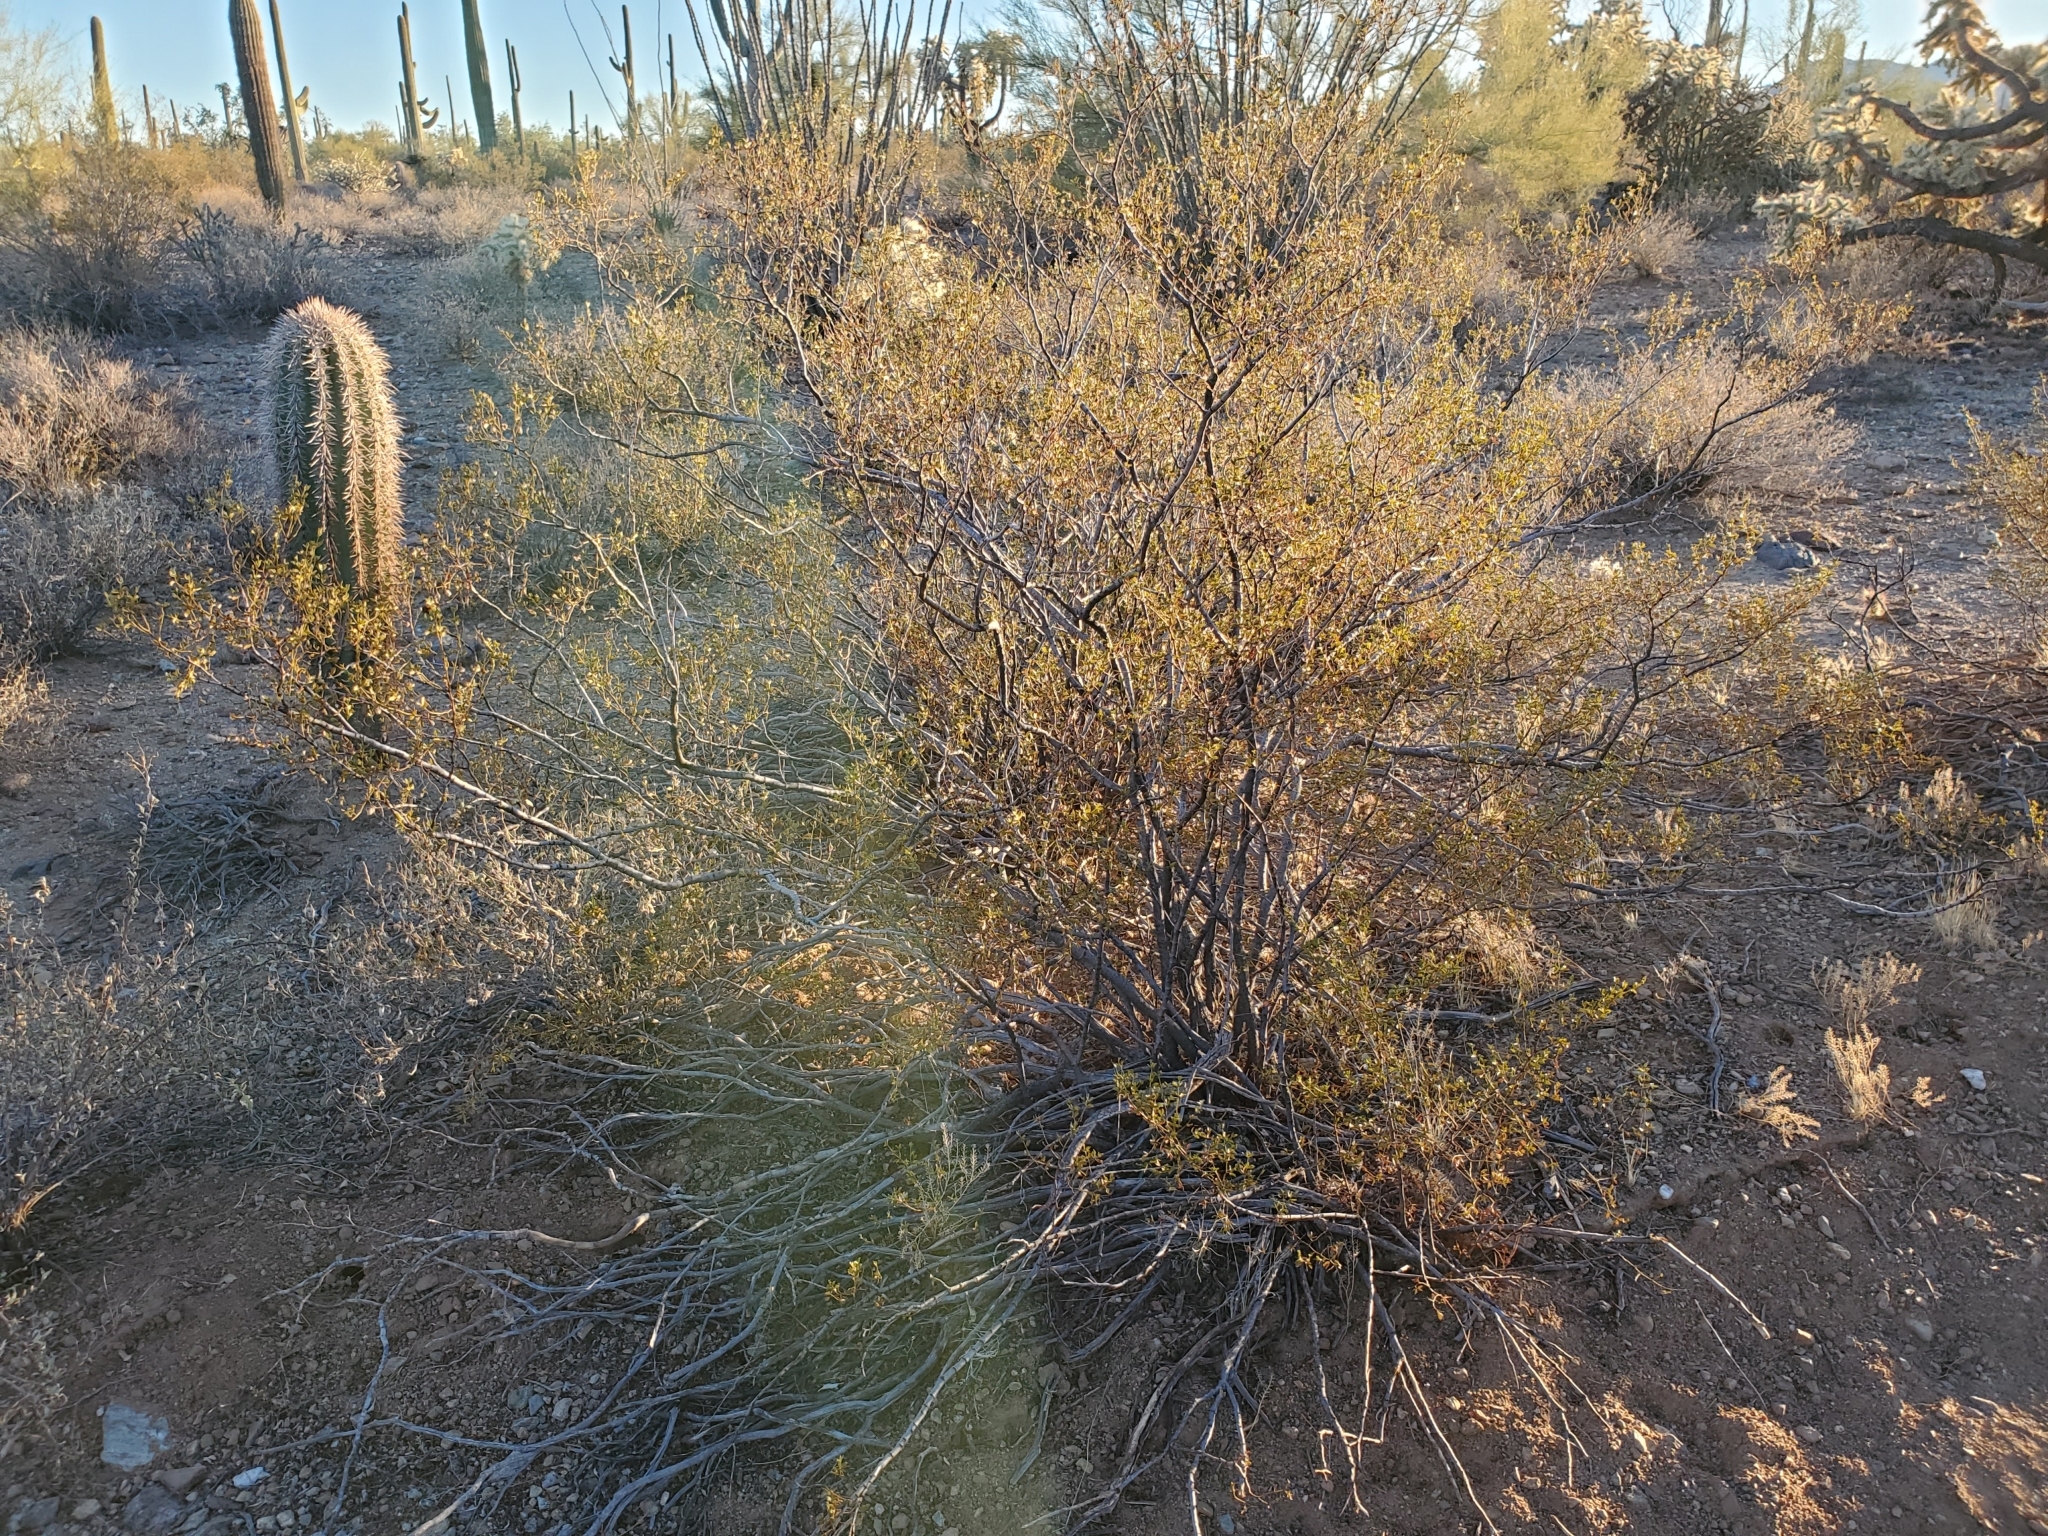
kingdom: Plantae
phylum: Tracheophyta
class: Magnoliopsida
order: Zygophyllales
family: Zygophyllaceae
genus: Larrea
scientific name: Larrea tridentata
